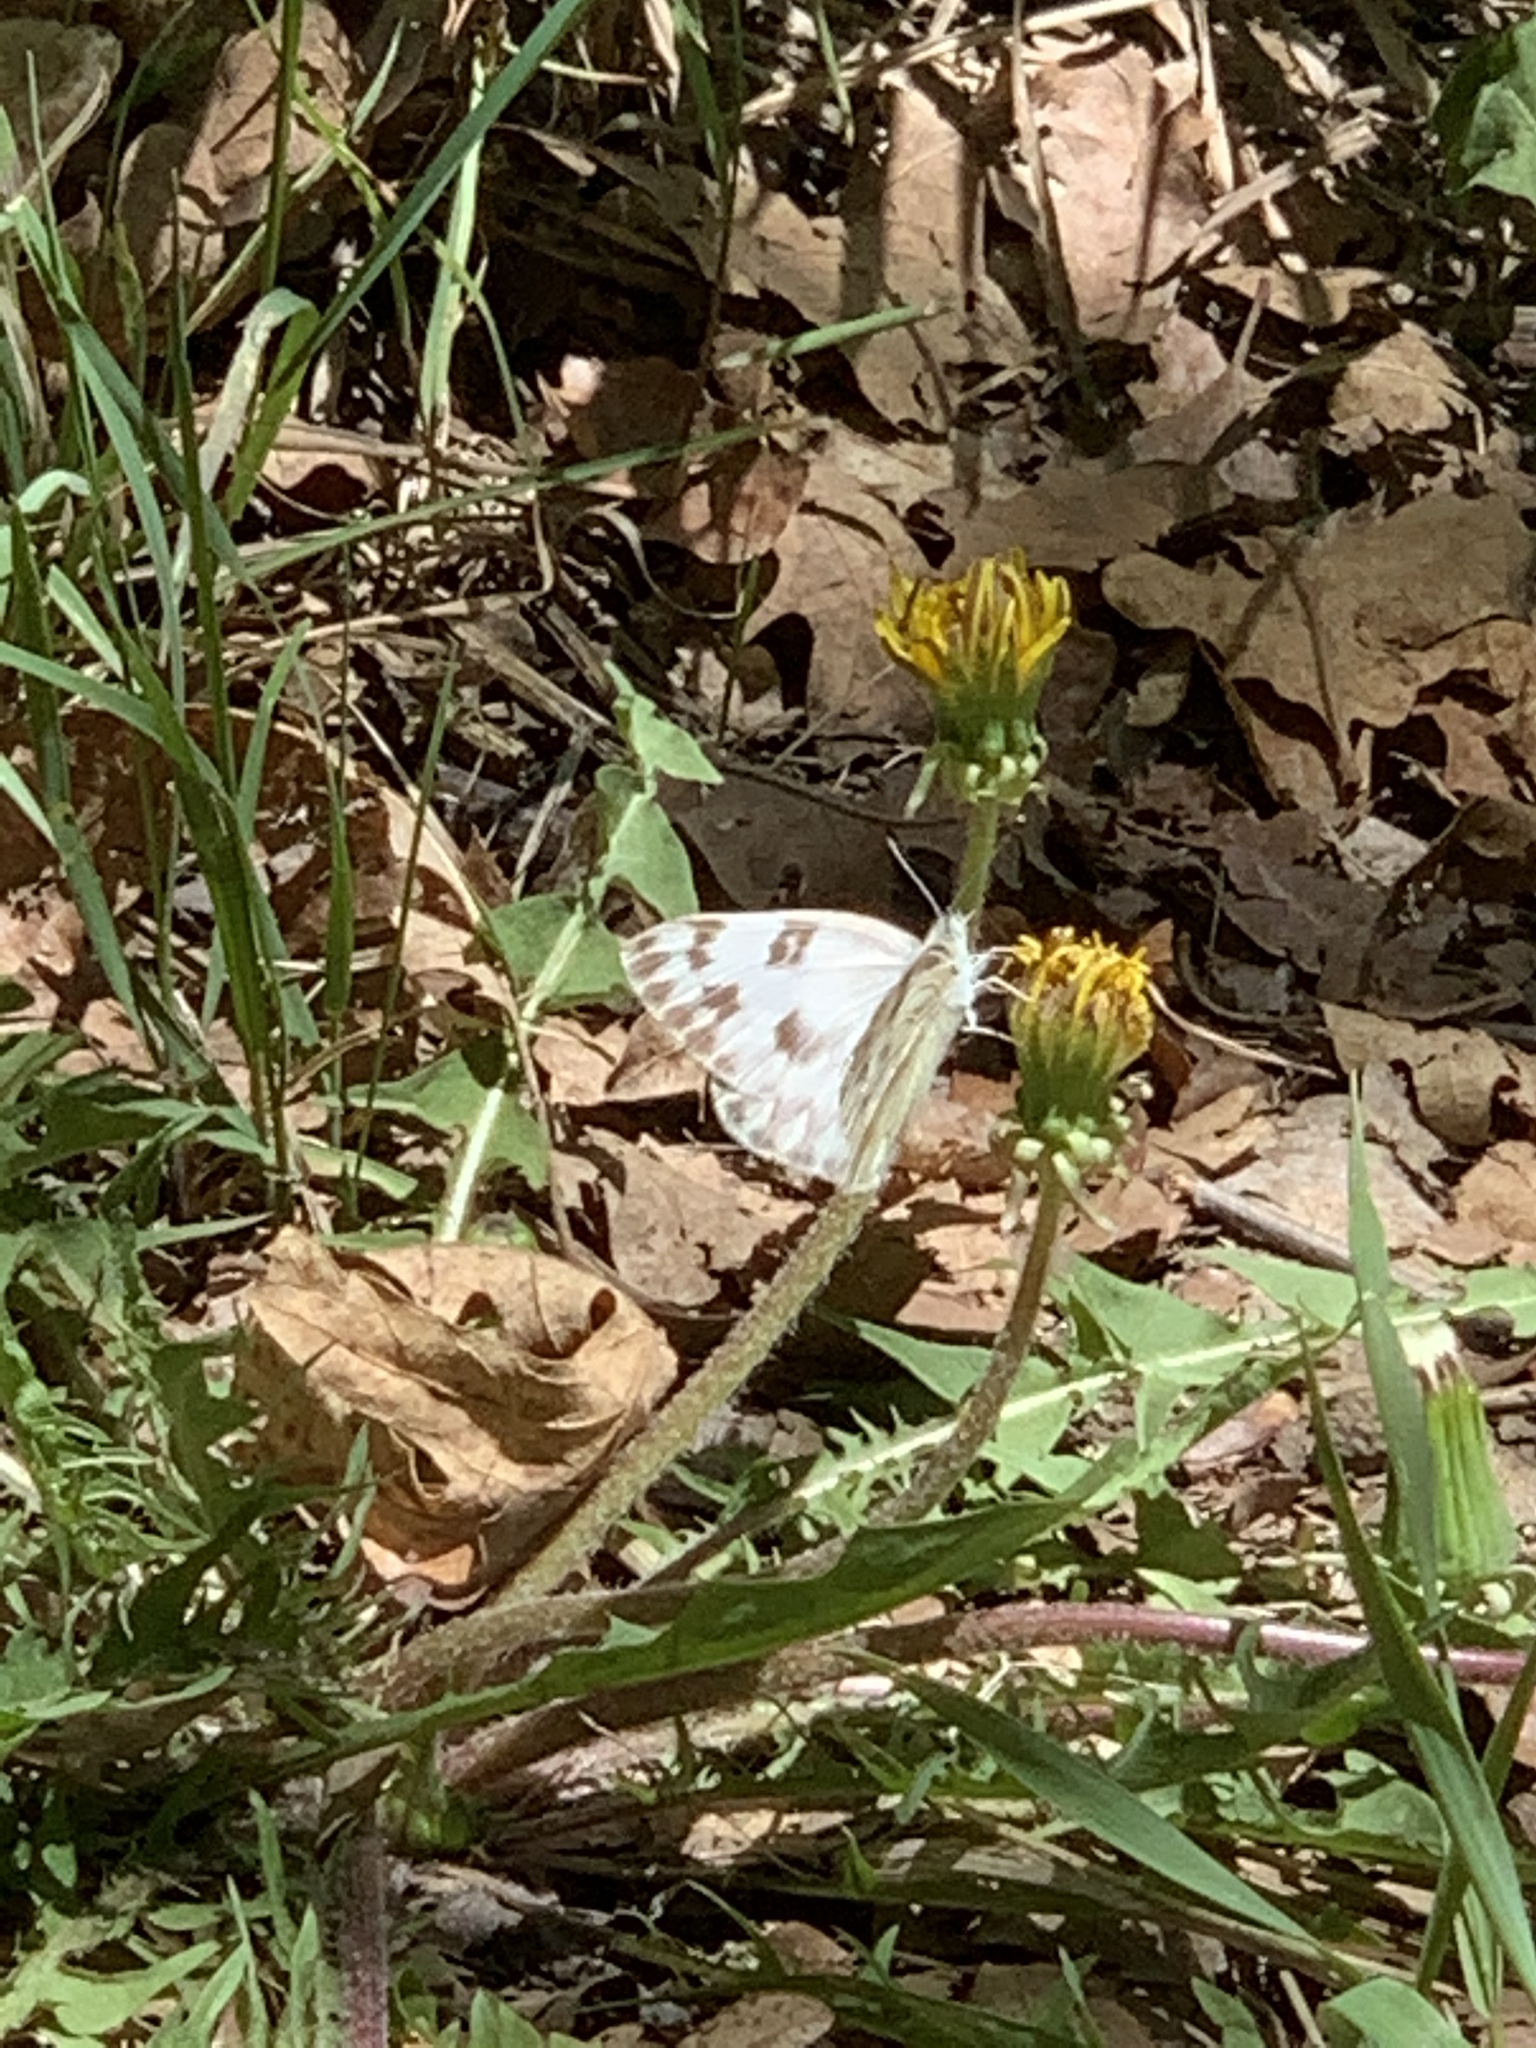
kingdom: Animalia
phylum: Arthropoda
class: Insecta
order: Lepidoptera
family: Pieridae
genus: Pontia
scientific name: Pontia protodice
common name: Checkered white
